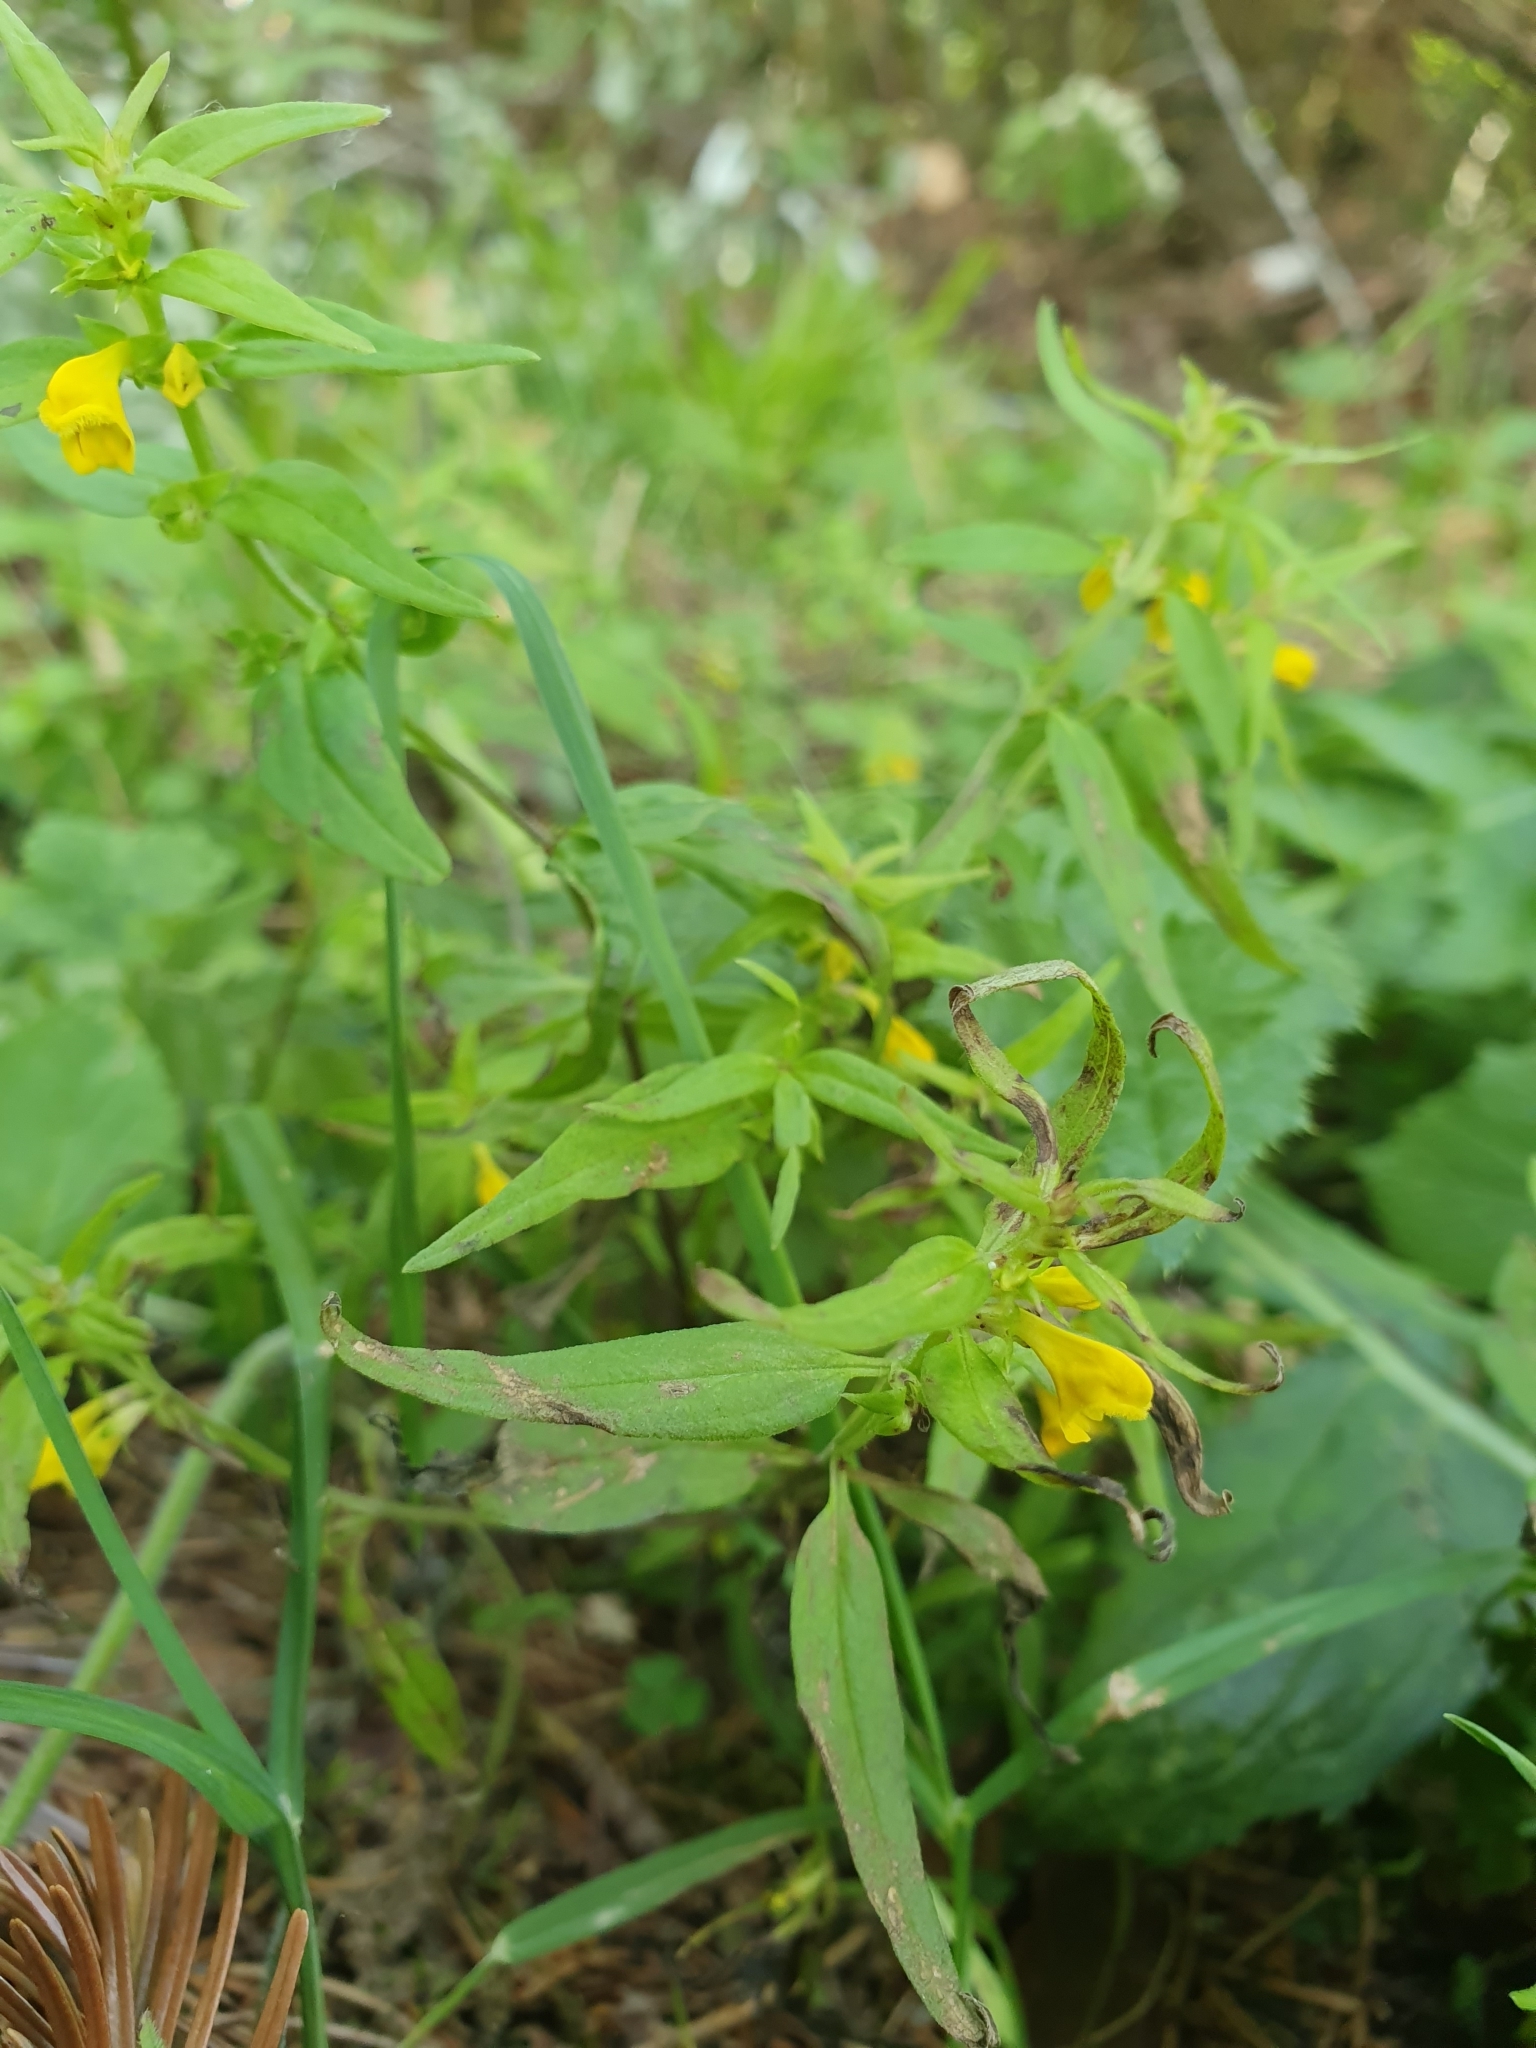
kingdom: Plantae
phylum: Tracheophyta
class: Magnoliopsida
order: Lamiales
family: Orobanchaceae
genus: Melampyrum
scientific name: Melampyrum sylvaticum
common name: Small cow-wheat
